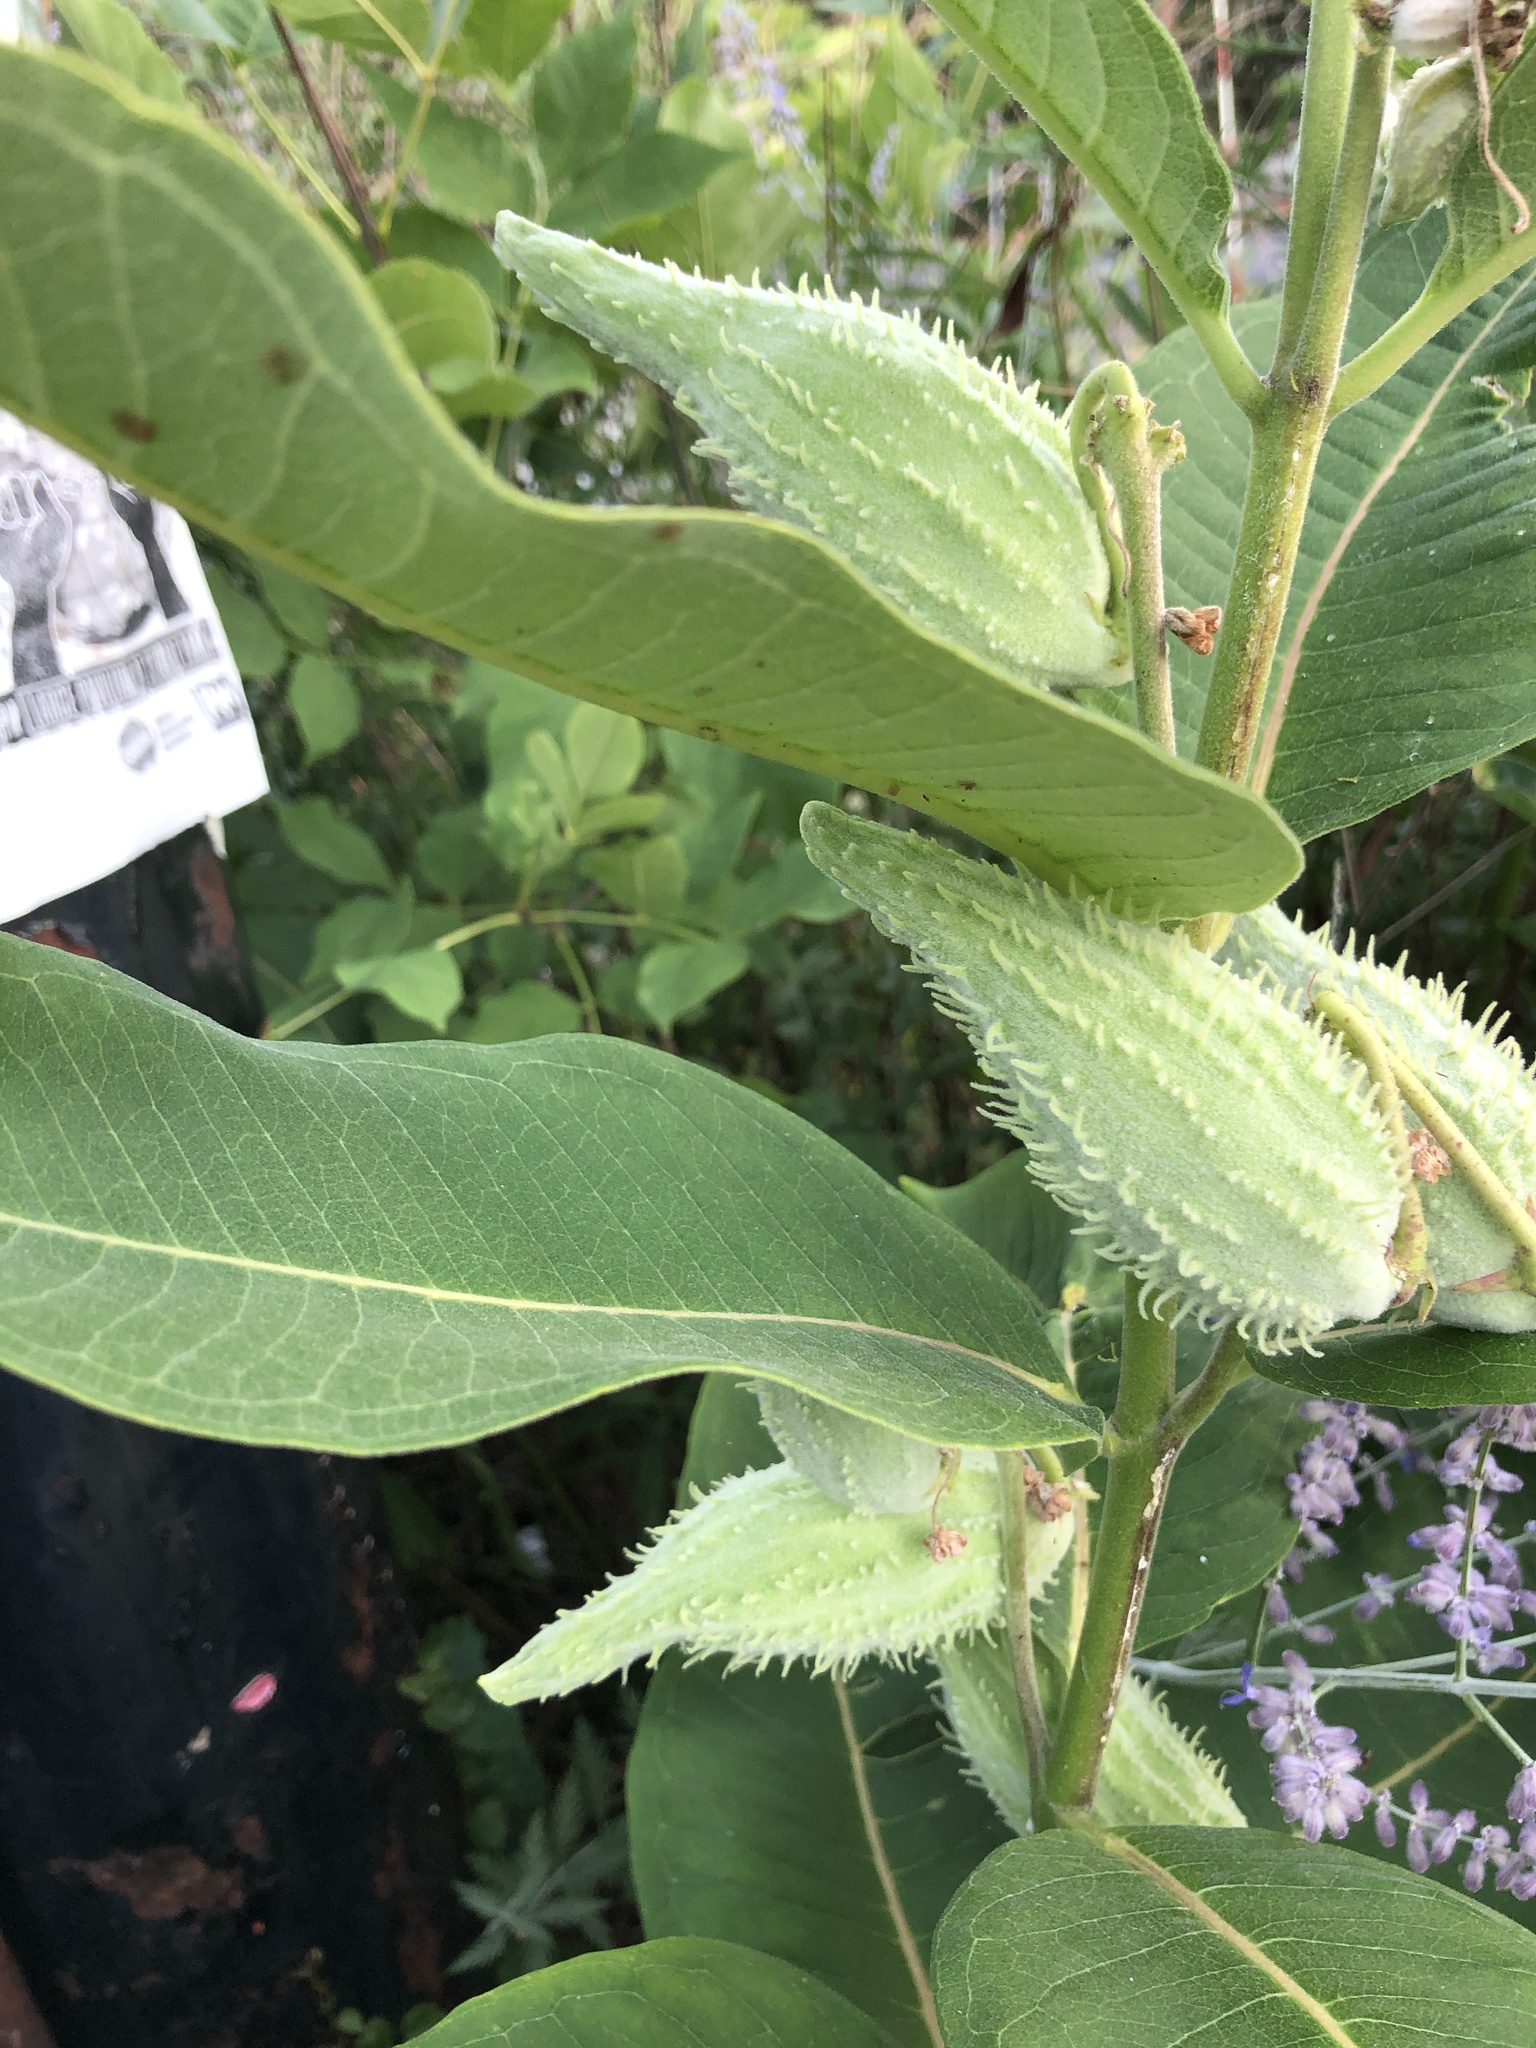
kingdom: Plantae
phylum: Tracheophyta
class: Magnoliopsida
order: Gentianales
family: Apocynaceae
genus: Asclepias
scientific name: Asclepias syriaca
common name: Common milkweed
